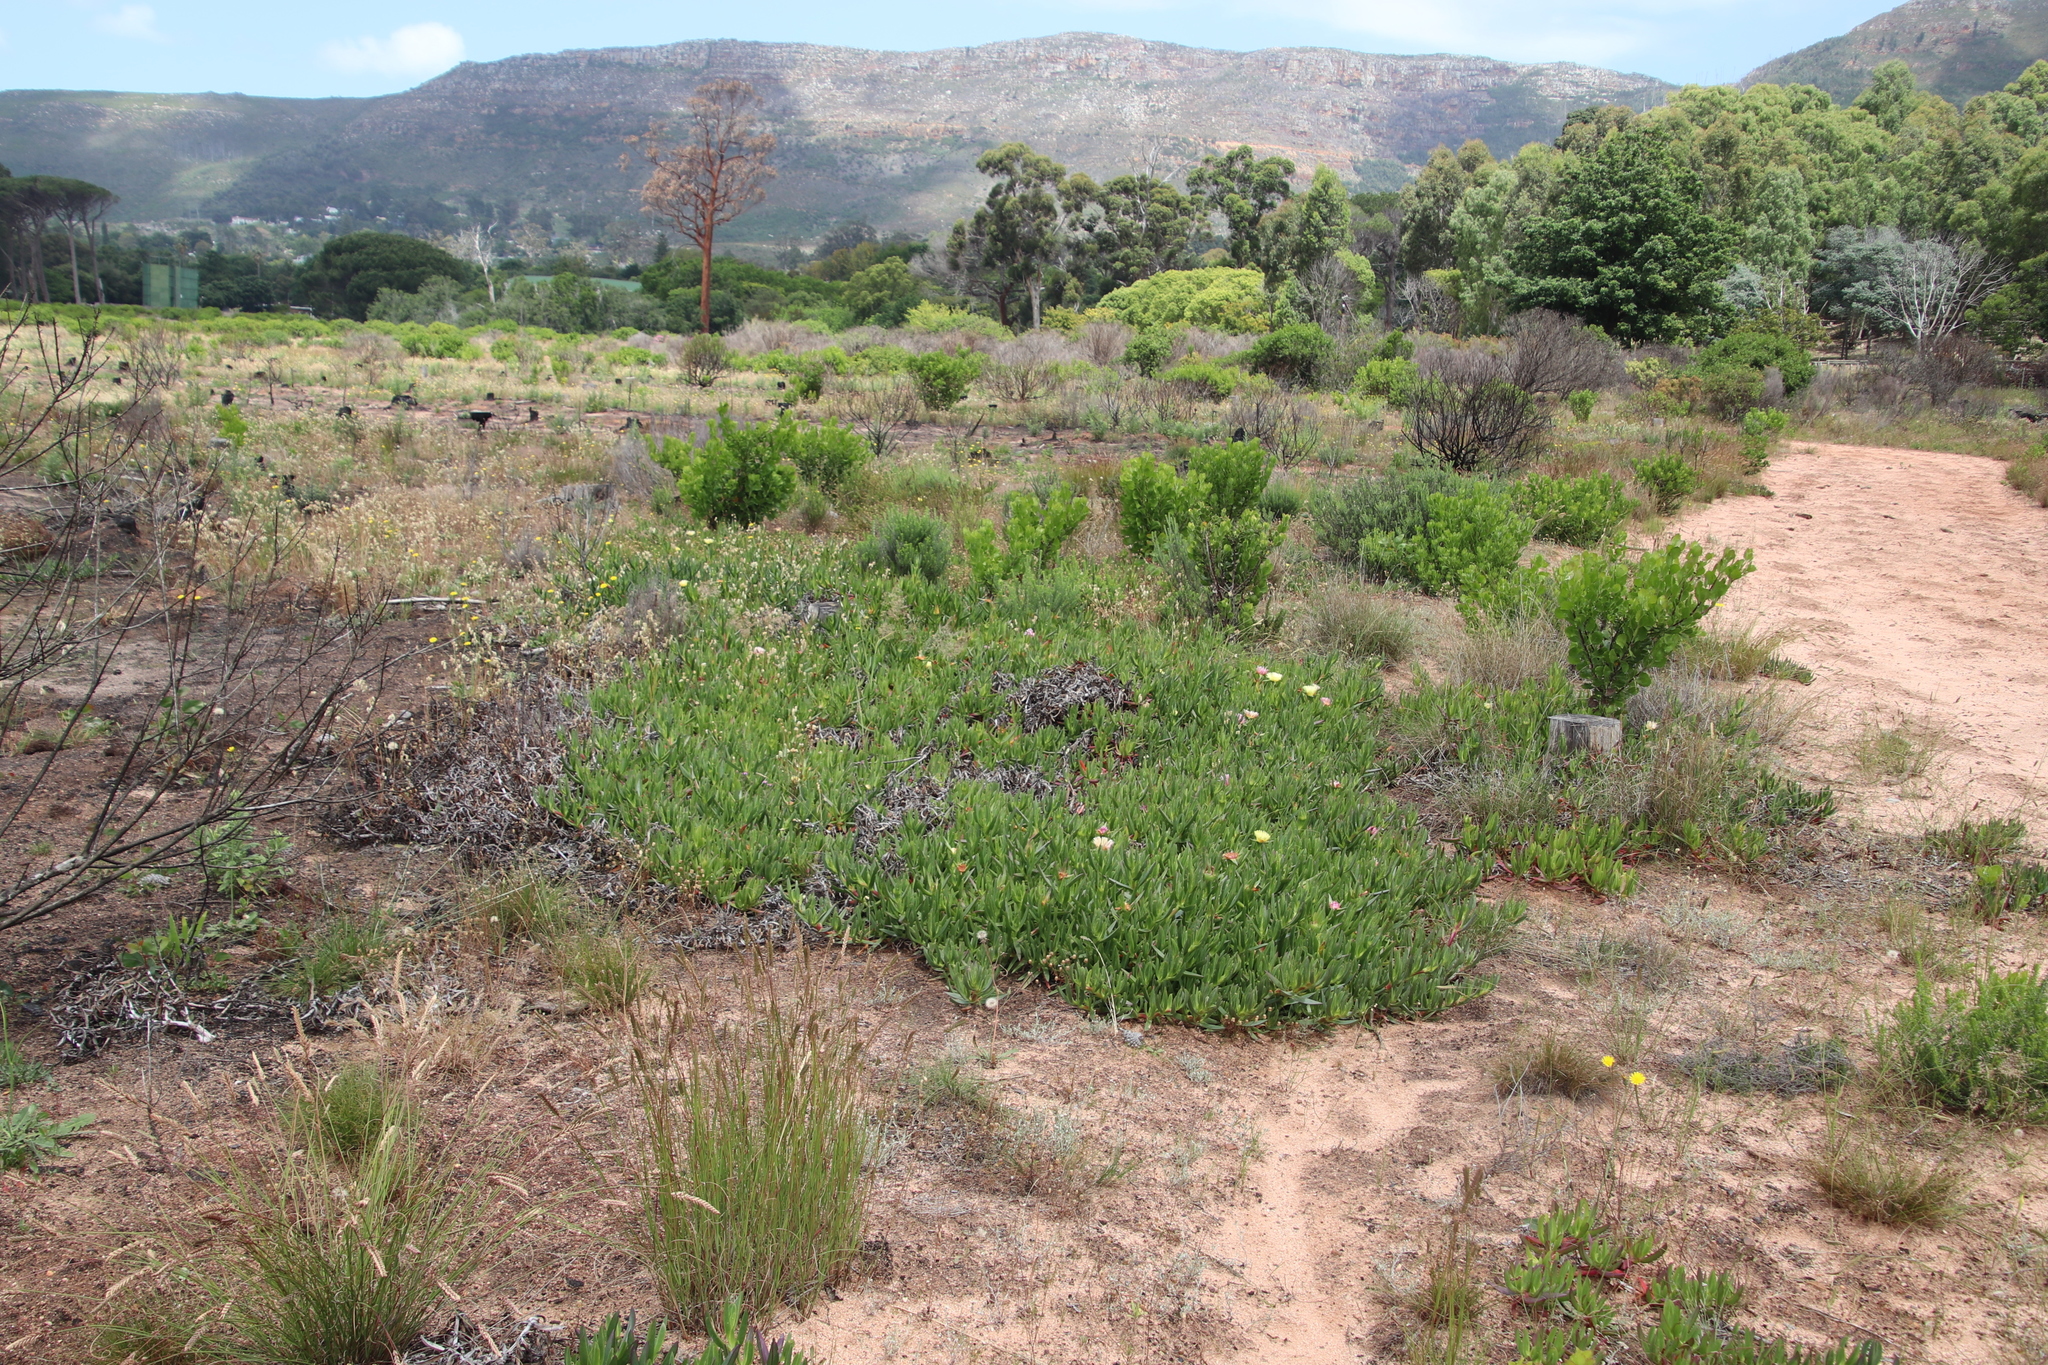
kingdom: Plantae
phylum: Tracheophyta
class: Magnoliopsida
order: Caryophyllales
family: Aizoaceae
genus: Carpobrotus
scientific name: Carpobrotus edulis
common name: Hottentot-fig
